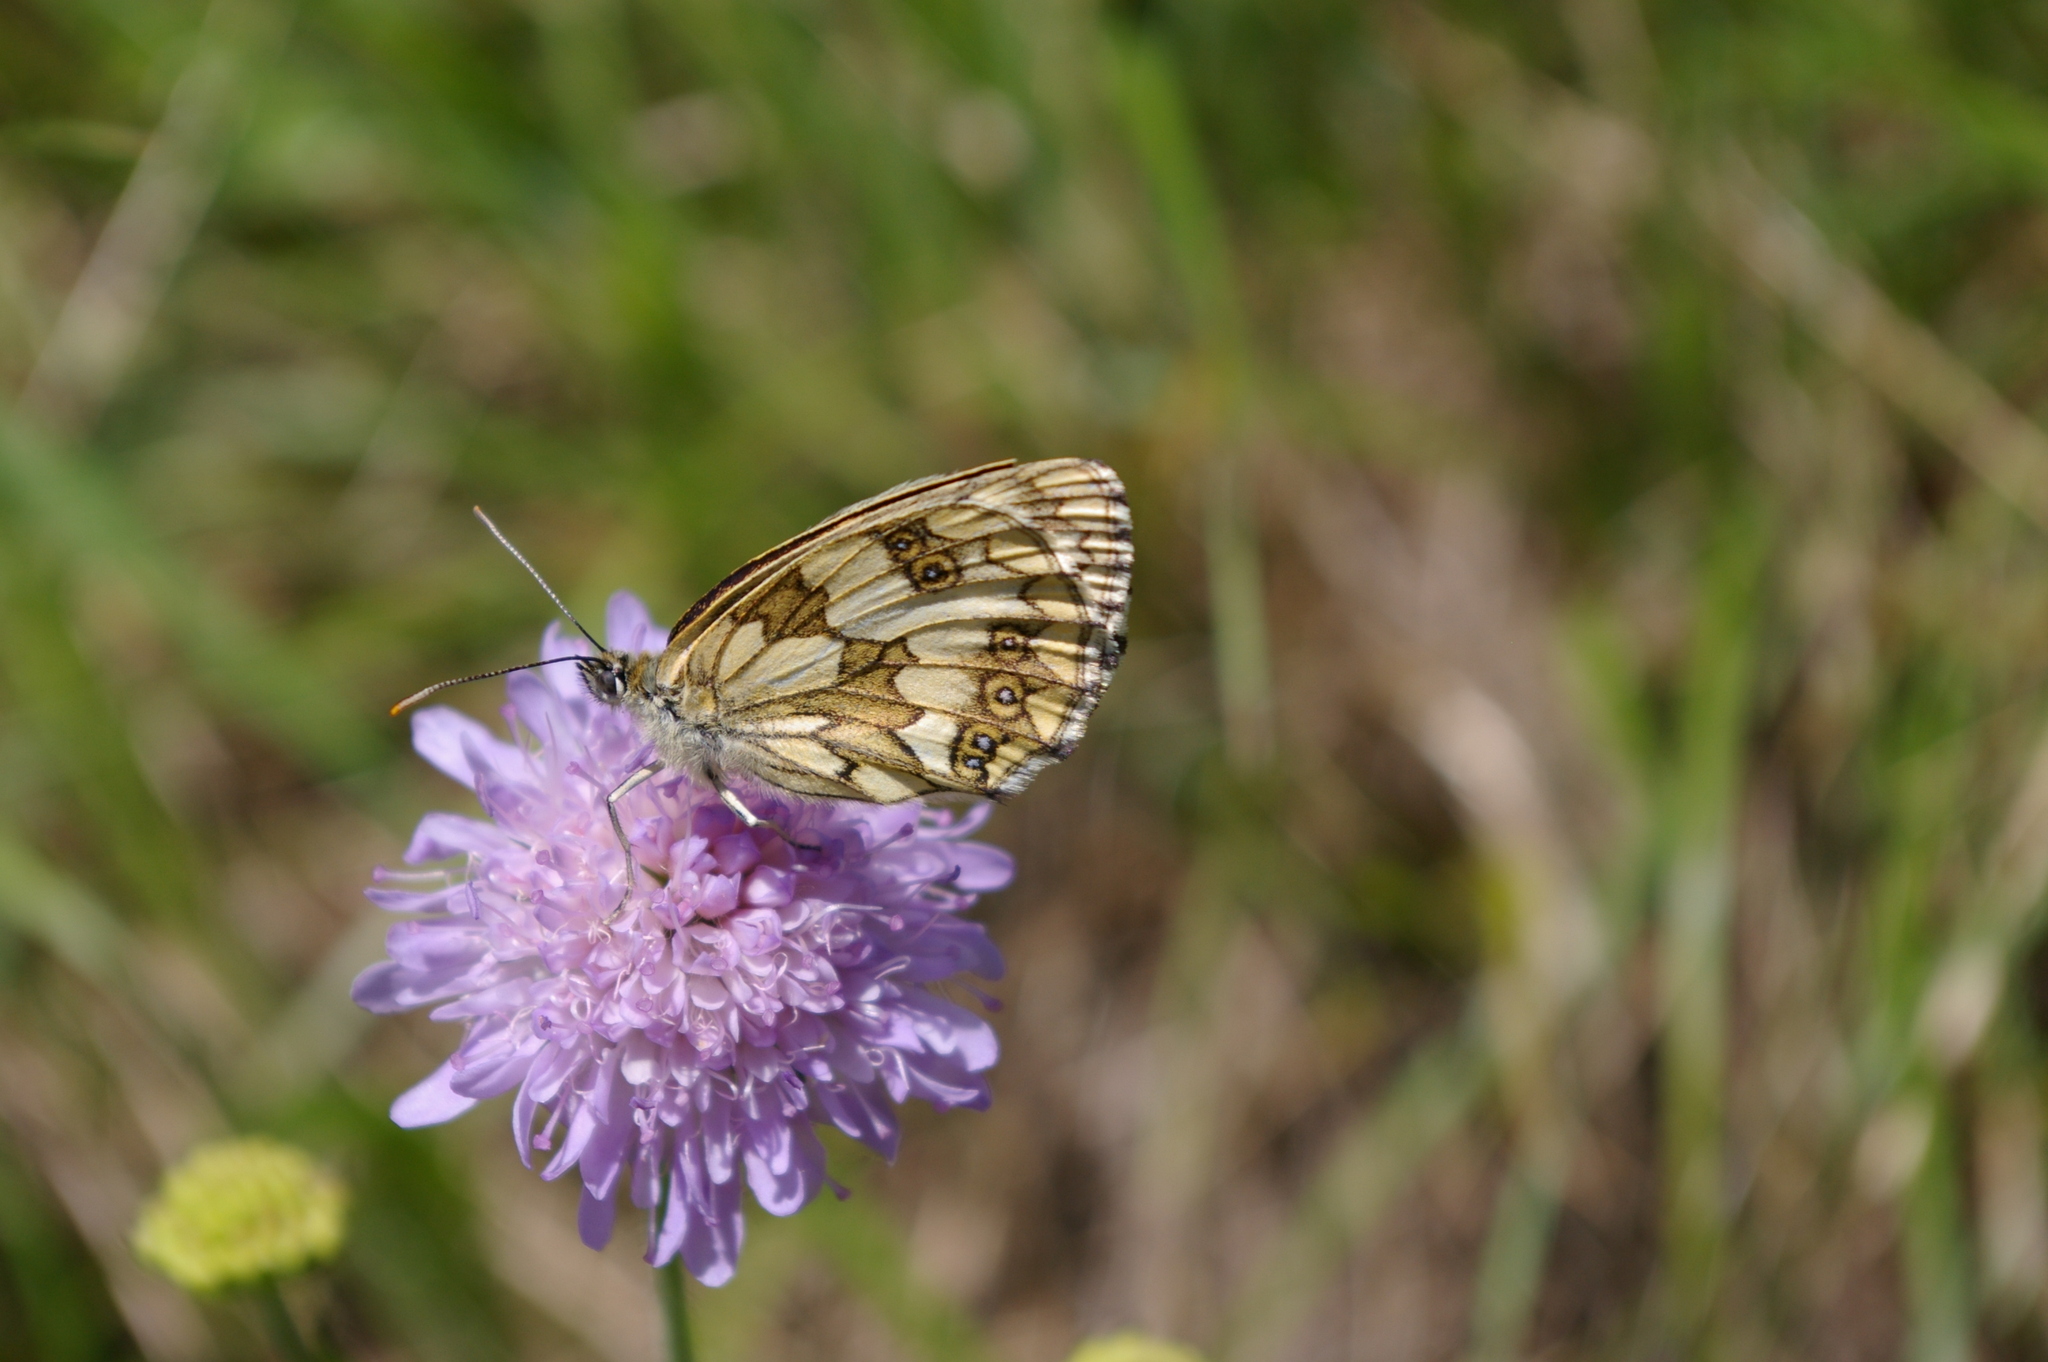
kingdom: Animalia
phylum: Arthropoda
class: Insecta
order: Lepidoptera
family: Nymphalidae
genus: Melanargia
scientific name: Melanargia galathea
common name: Marbled white
